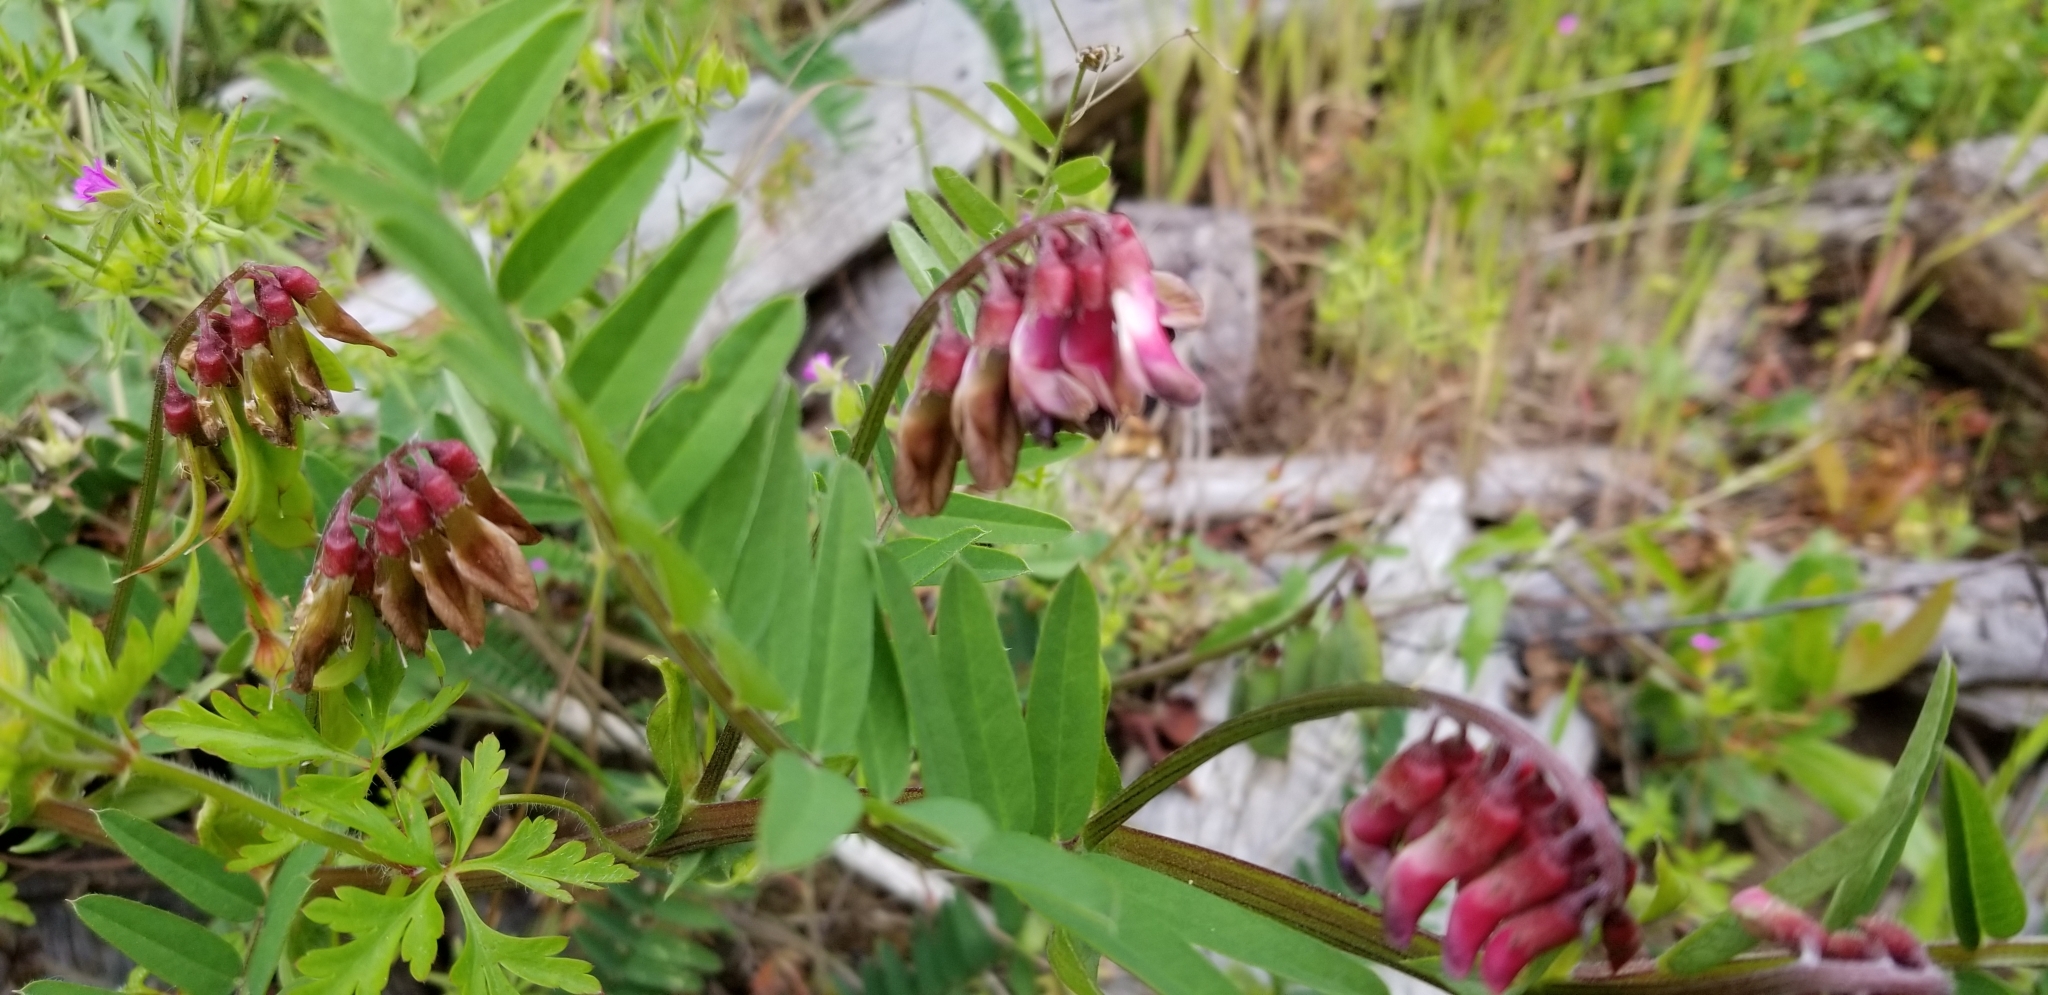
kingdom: Plantae
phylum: Tracheophyta
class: Magnoliopsida
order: Fabales
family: Fabaceae
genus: Vicia
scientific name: Vicia
